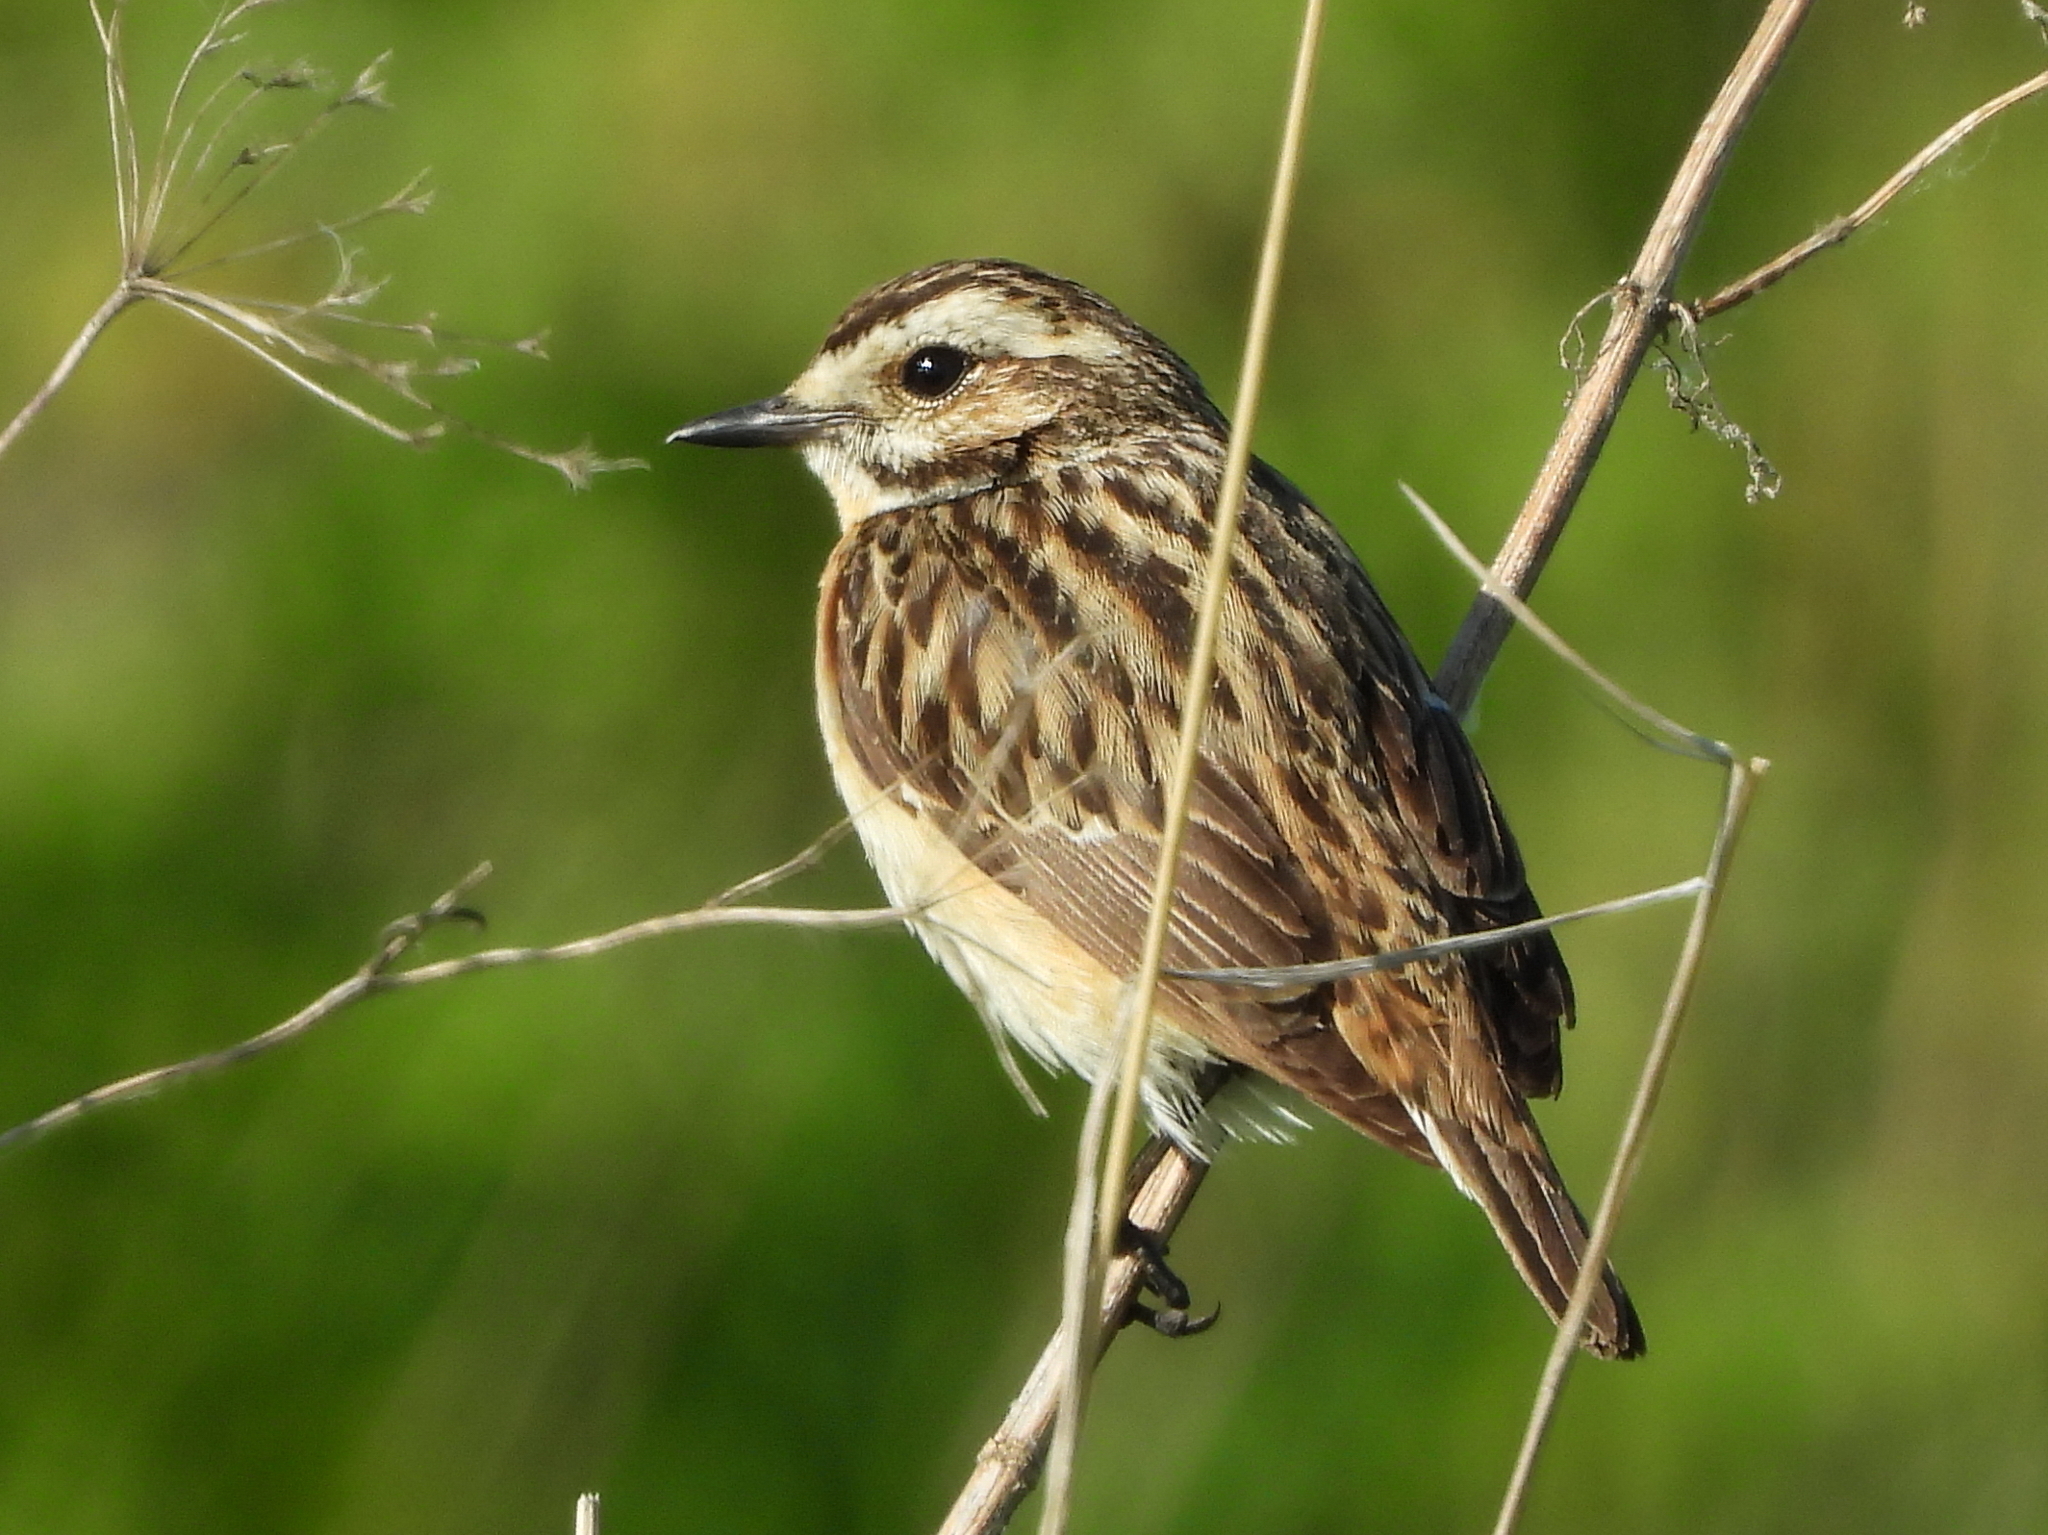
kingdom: Animalia
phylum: Chordata
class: Aves
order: Passeriformes
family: Muscicapidae
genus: Saxicola
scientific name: Saxicola rubetra
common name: Whinchat
